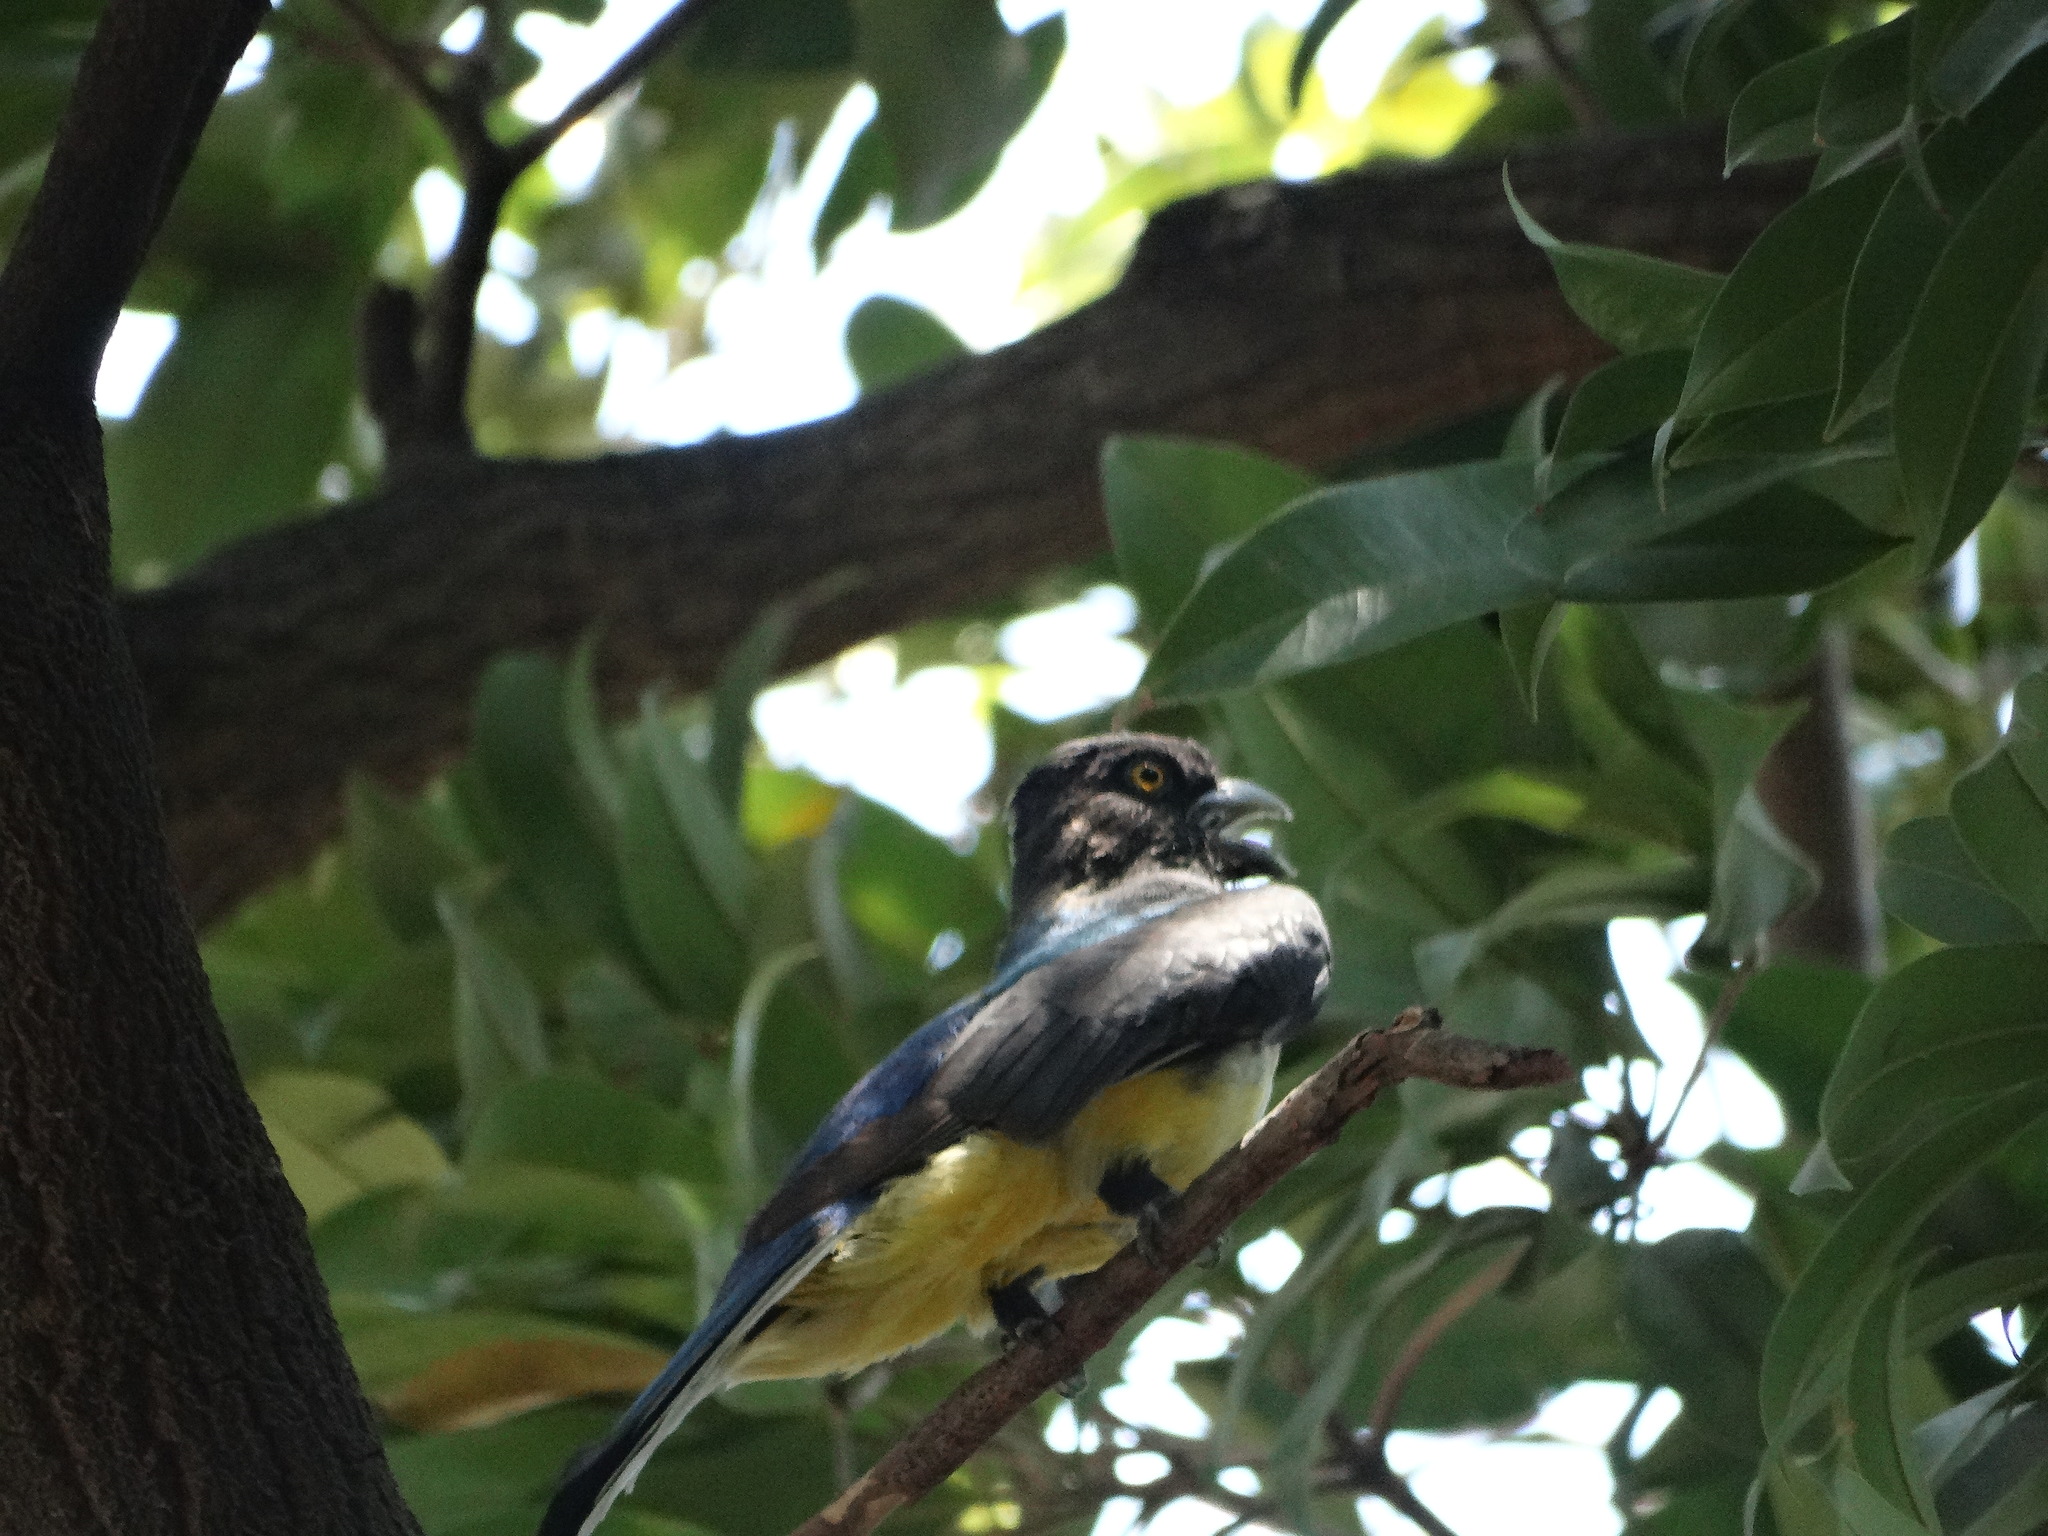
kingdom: Animalia
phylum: Chordata
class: Aves
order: Trogoniformes
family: Trogonidae
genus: Trogon
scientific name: Trogon citreolus
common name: Citreoline trogon
